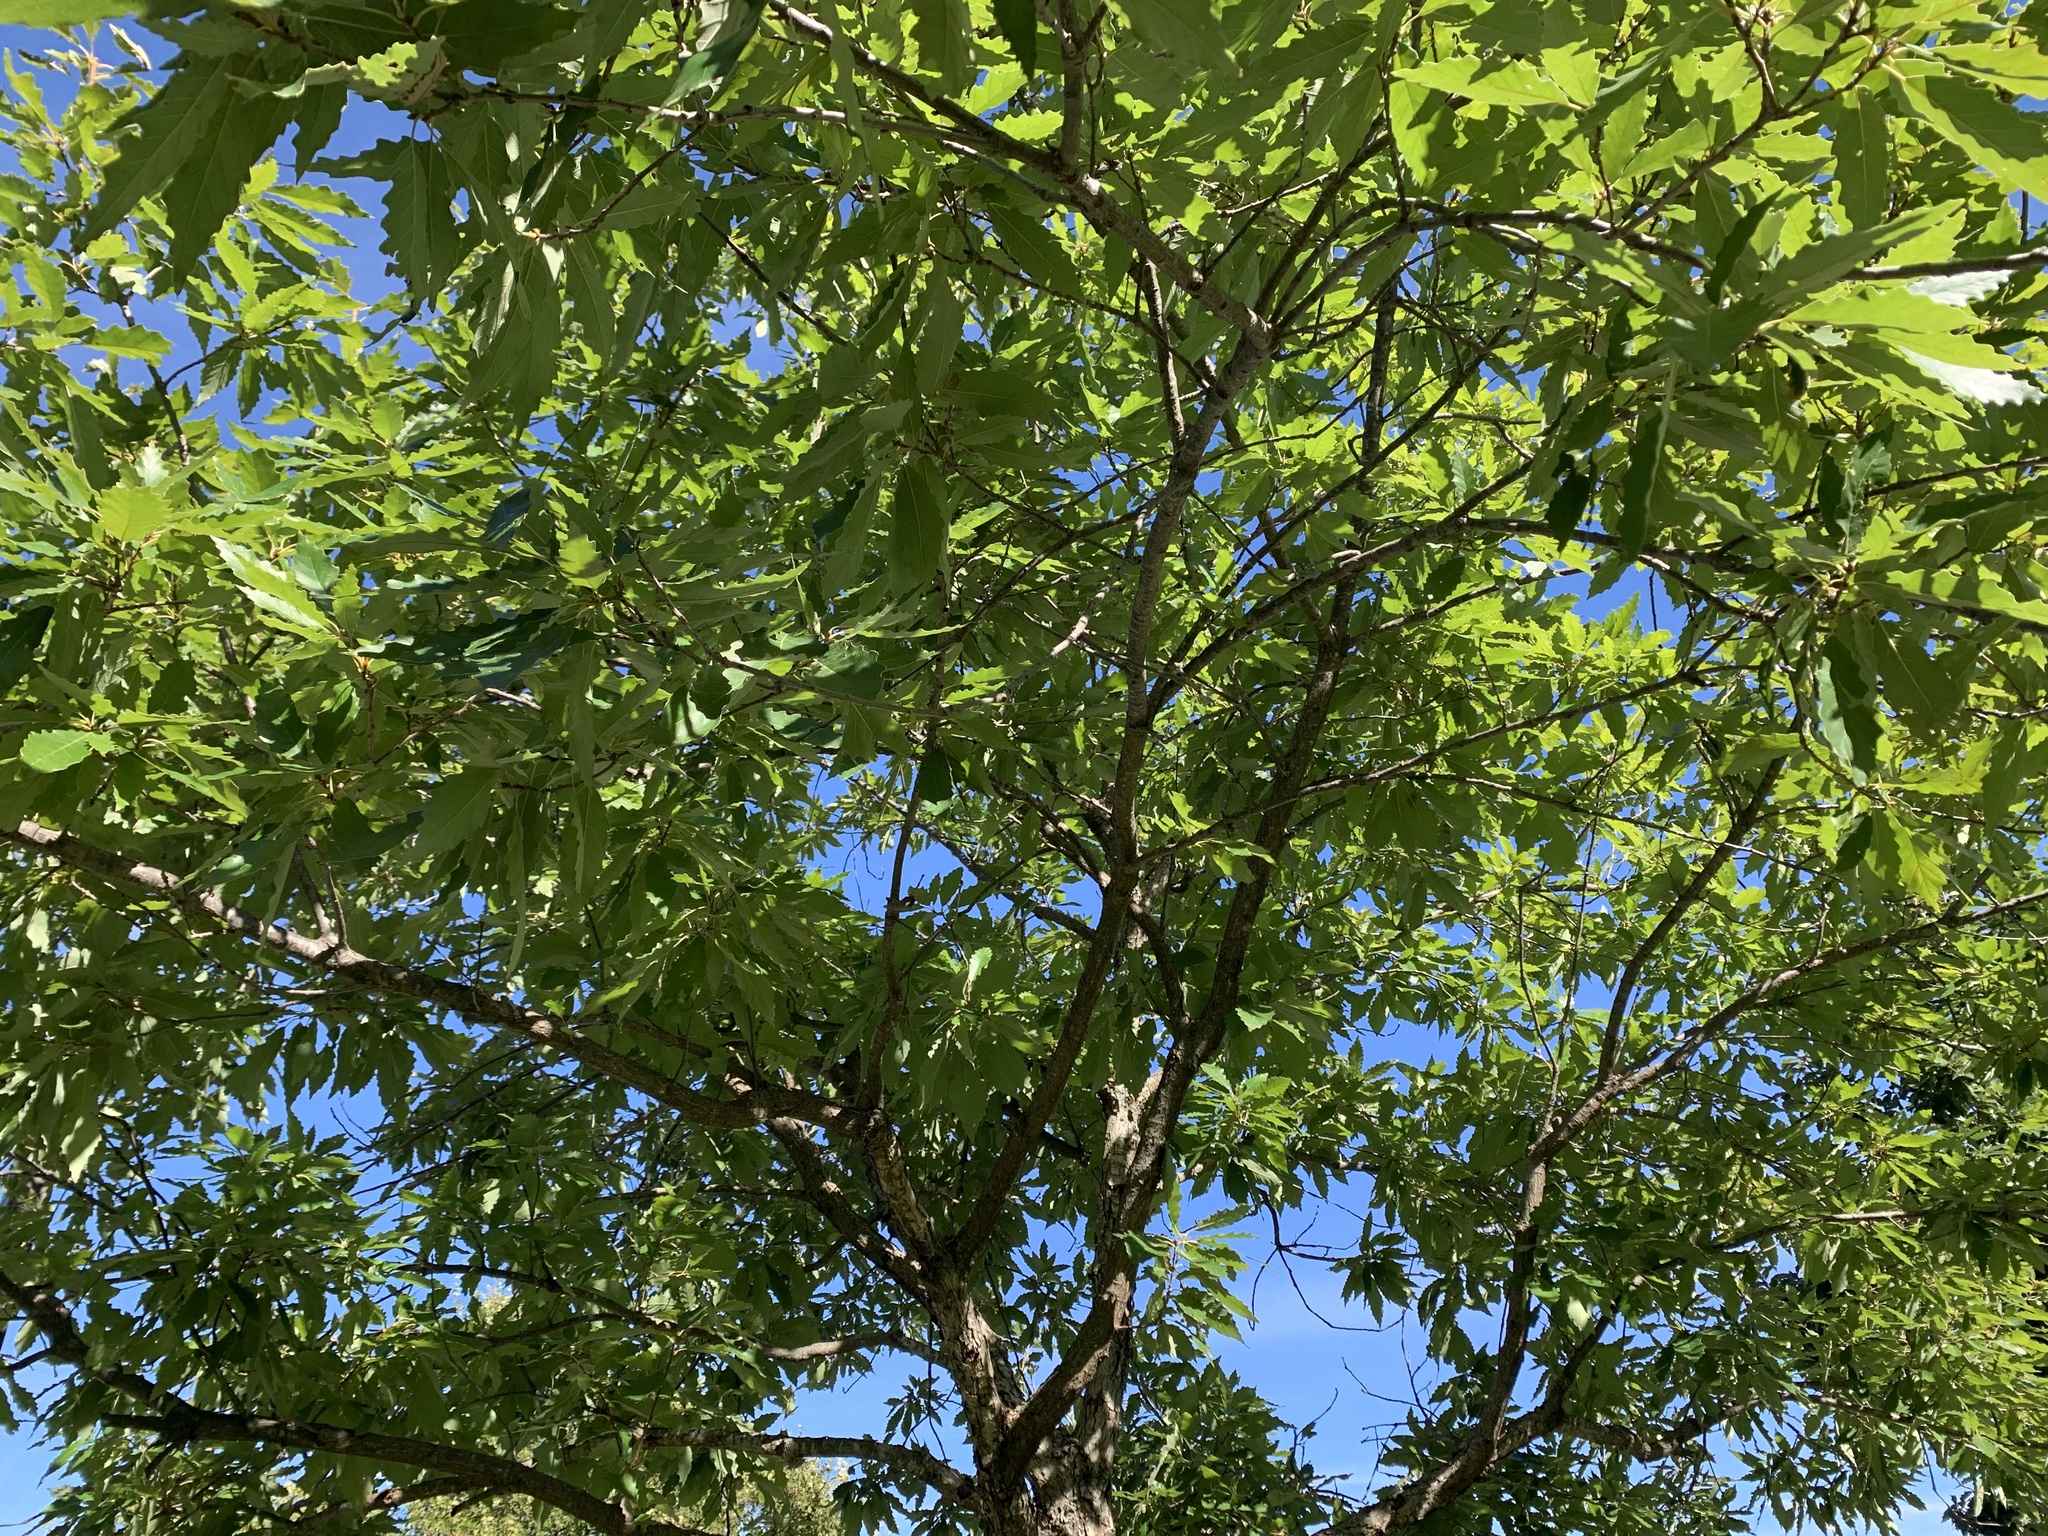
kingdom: Plantae
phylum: Tracheophyta
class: Magnoliopsida
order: Fagales
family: Fagaceae
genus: Quercus
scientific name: Quercus muehlenbergii
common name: Chinkapin oak
